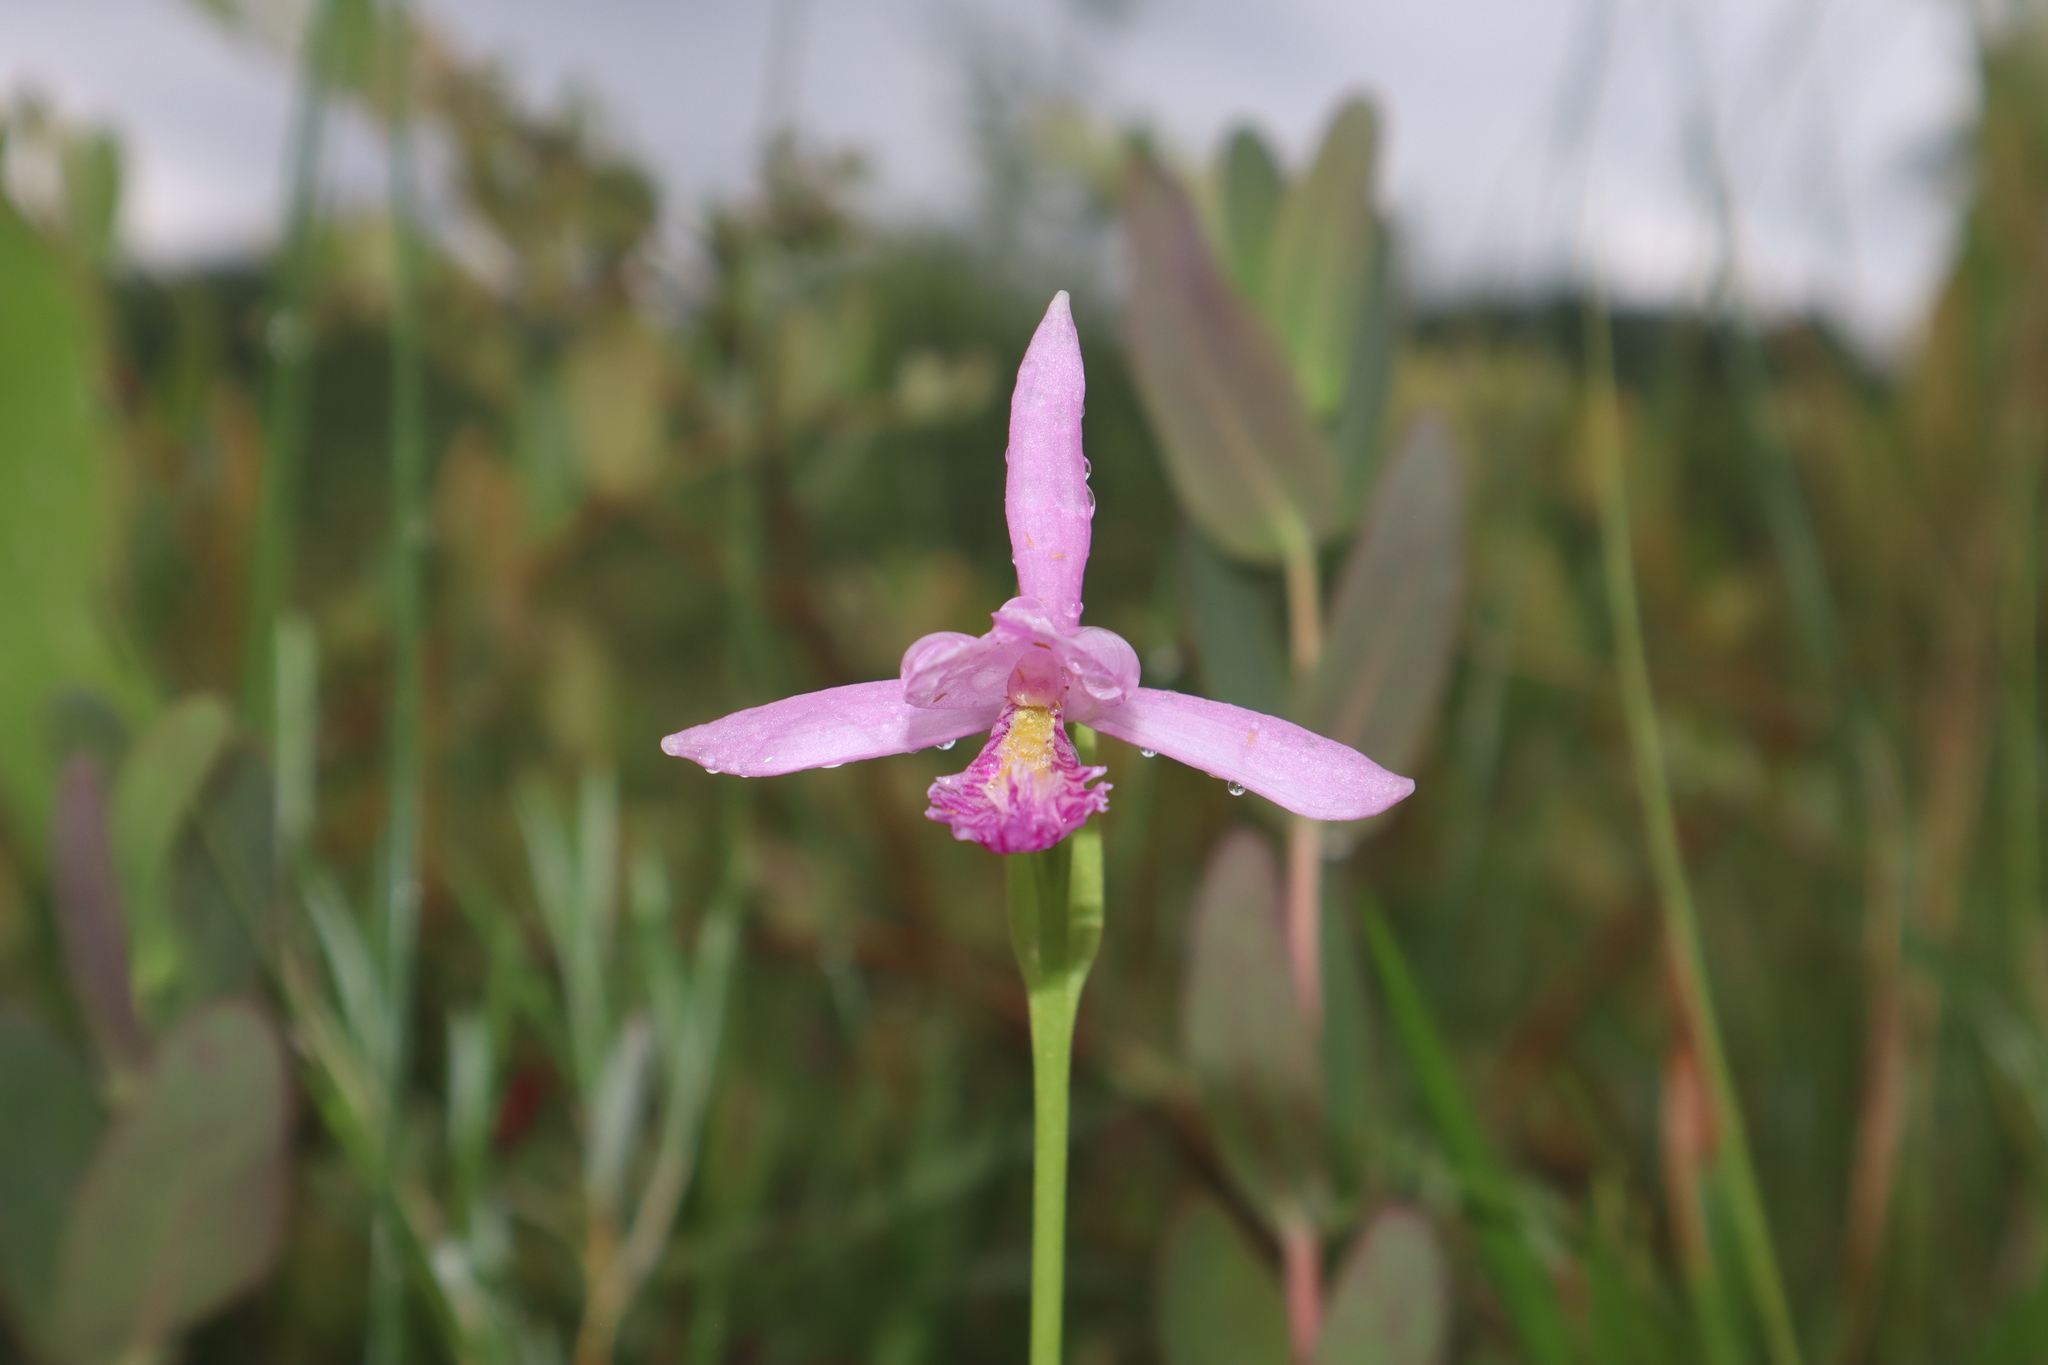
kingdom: Plantae
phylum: Tracheophyta
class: Liliopsida
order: Asparagales
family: Orchidaceae
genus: Pogonia
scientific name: Pogonia ophioglossoides
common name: Rose pogonia
